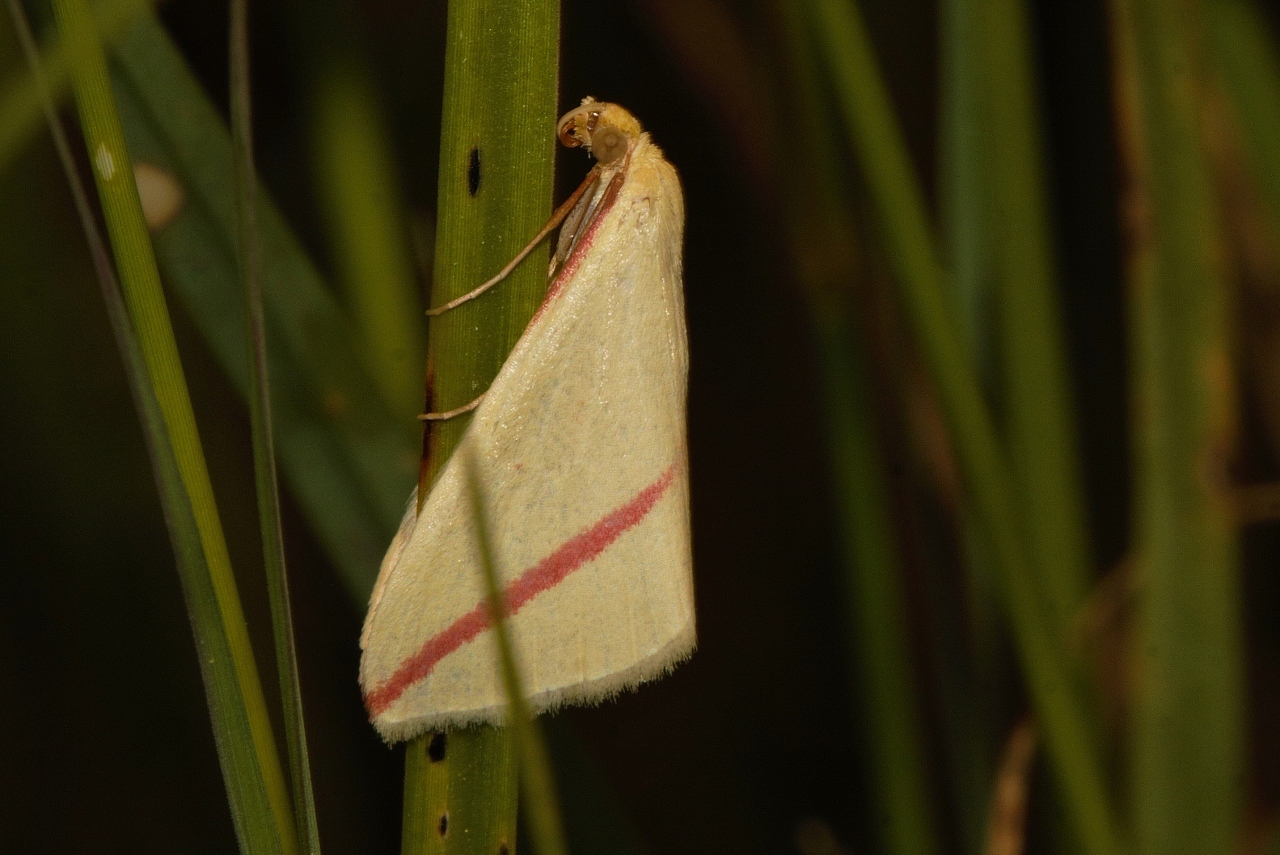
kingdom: Animalia
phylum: Arthropoda
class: Insecta
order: Lepidoptera
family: Geometridae
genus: Rhodometra
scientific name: Rhodometra sacraria
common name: Vestal
